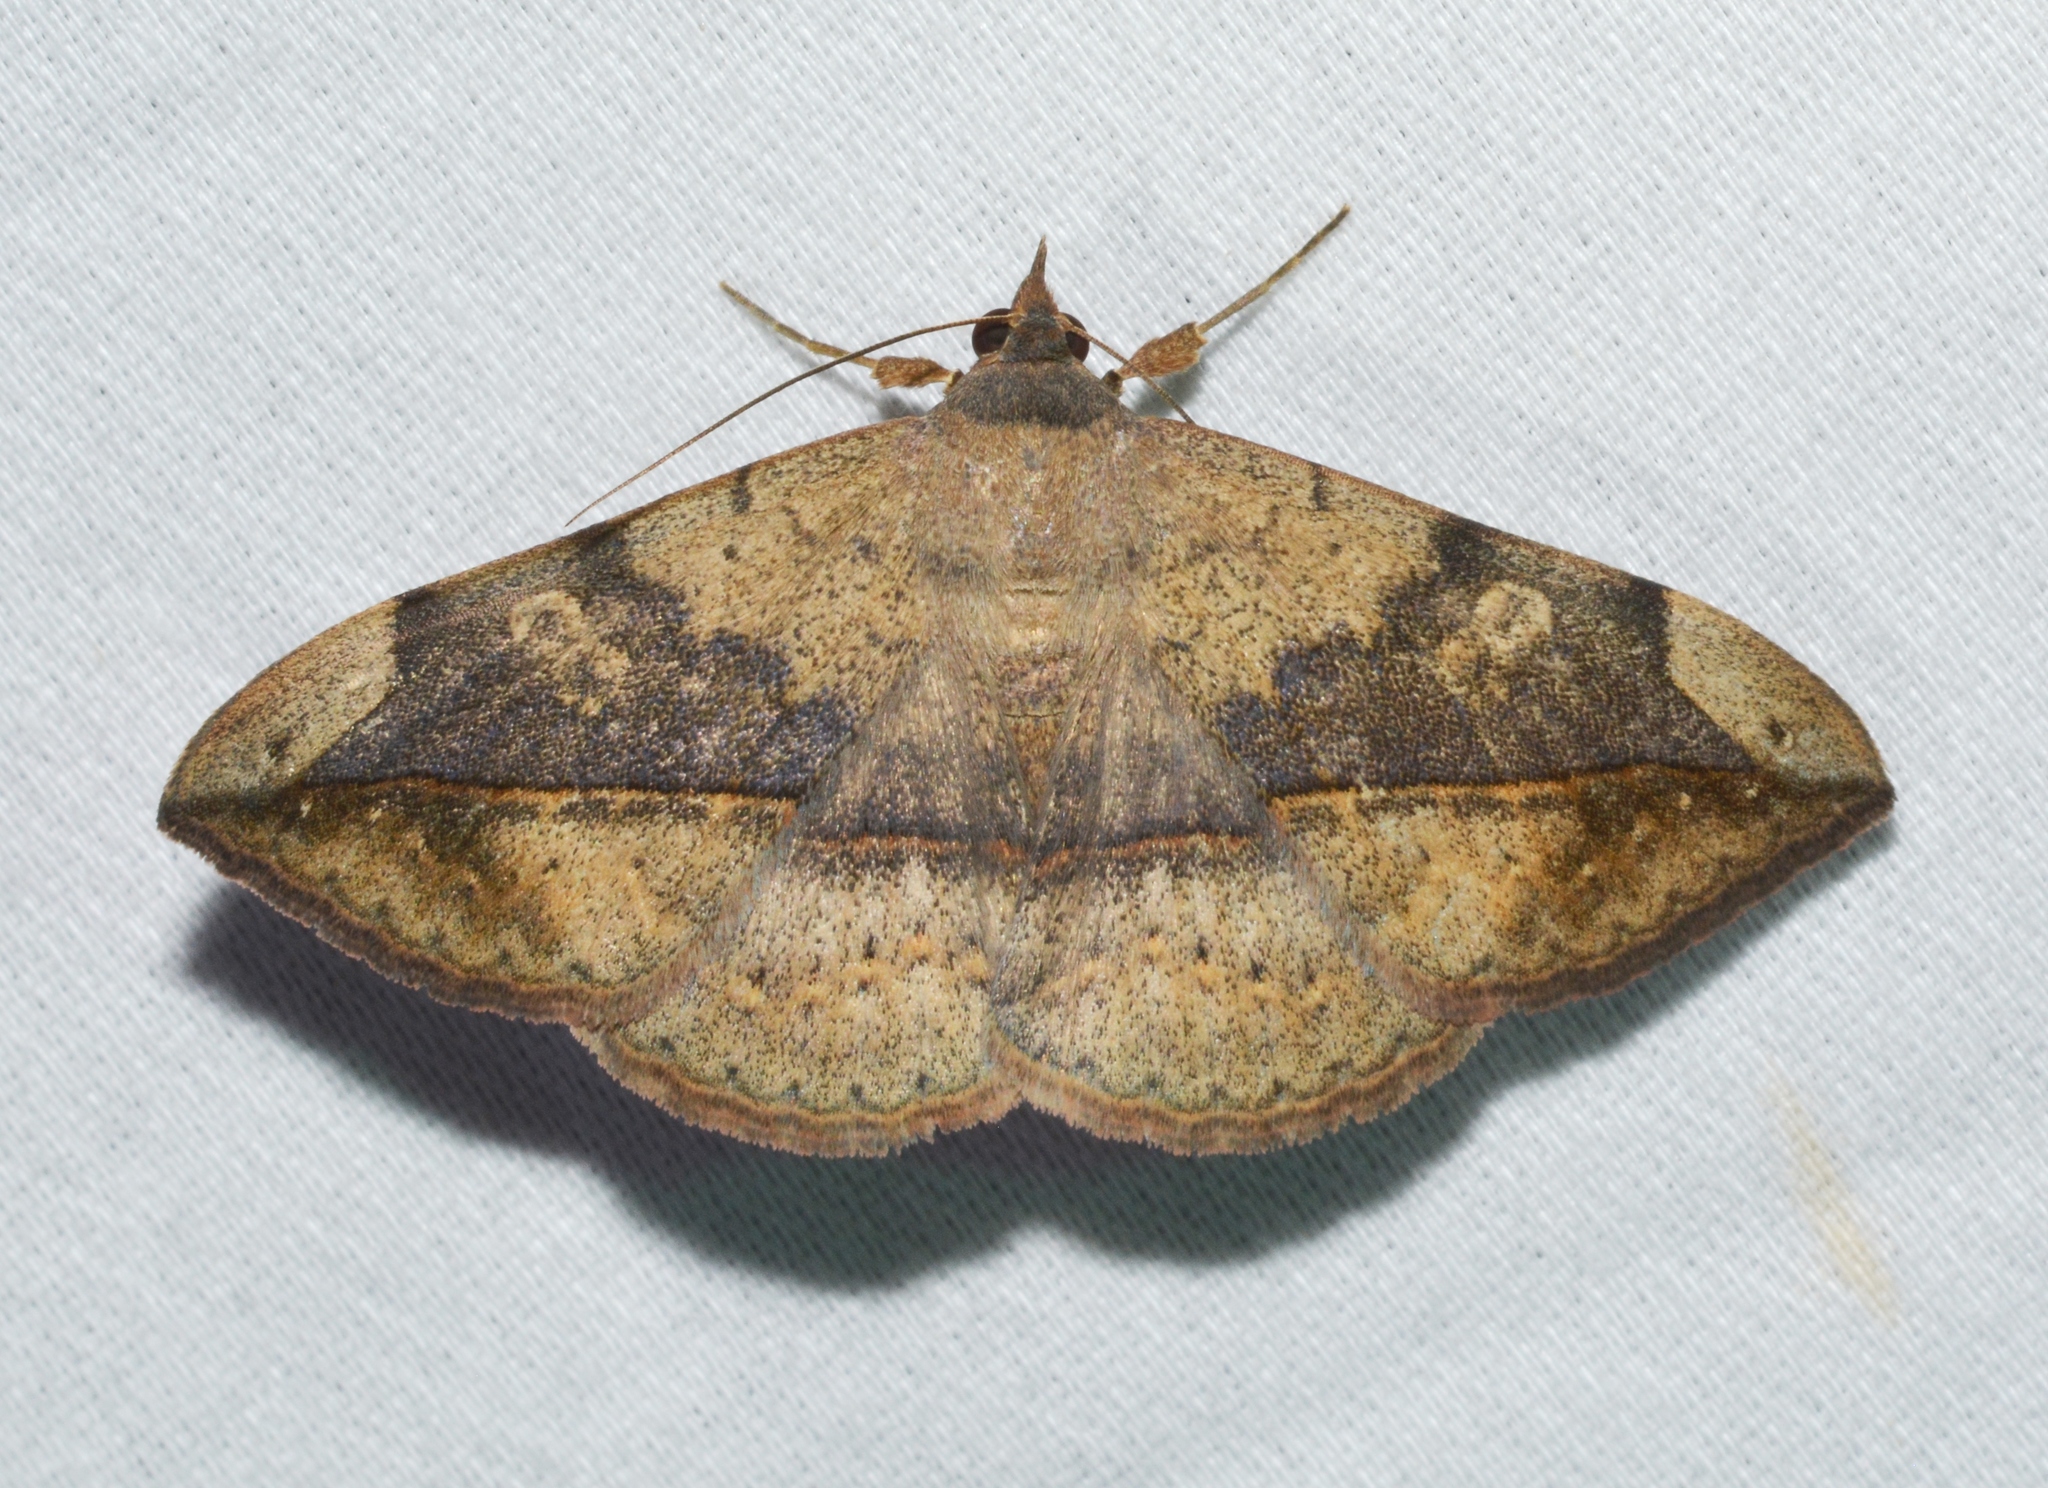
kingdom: Animalia
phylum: Arthropoda
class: Insecta
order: Lepidoptera
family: Erebidae
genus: Anticarsia
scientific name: Anticarsia gemmatalis
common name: Cutworm moth
